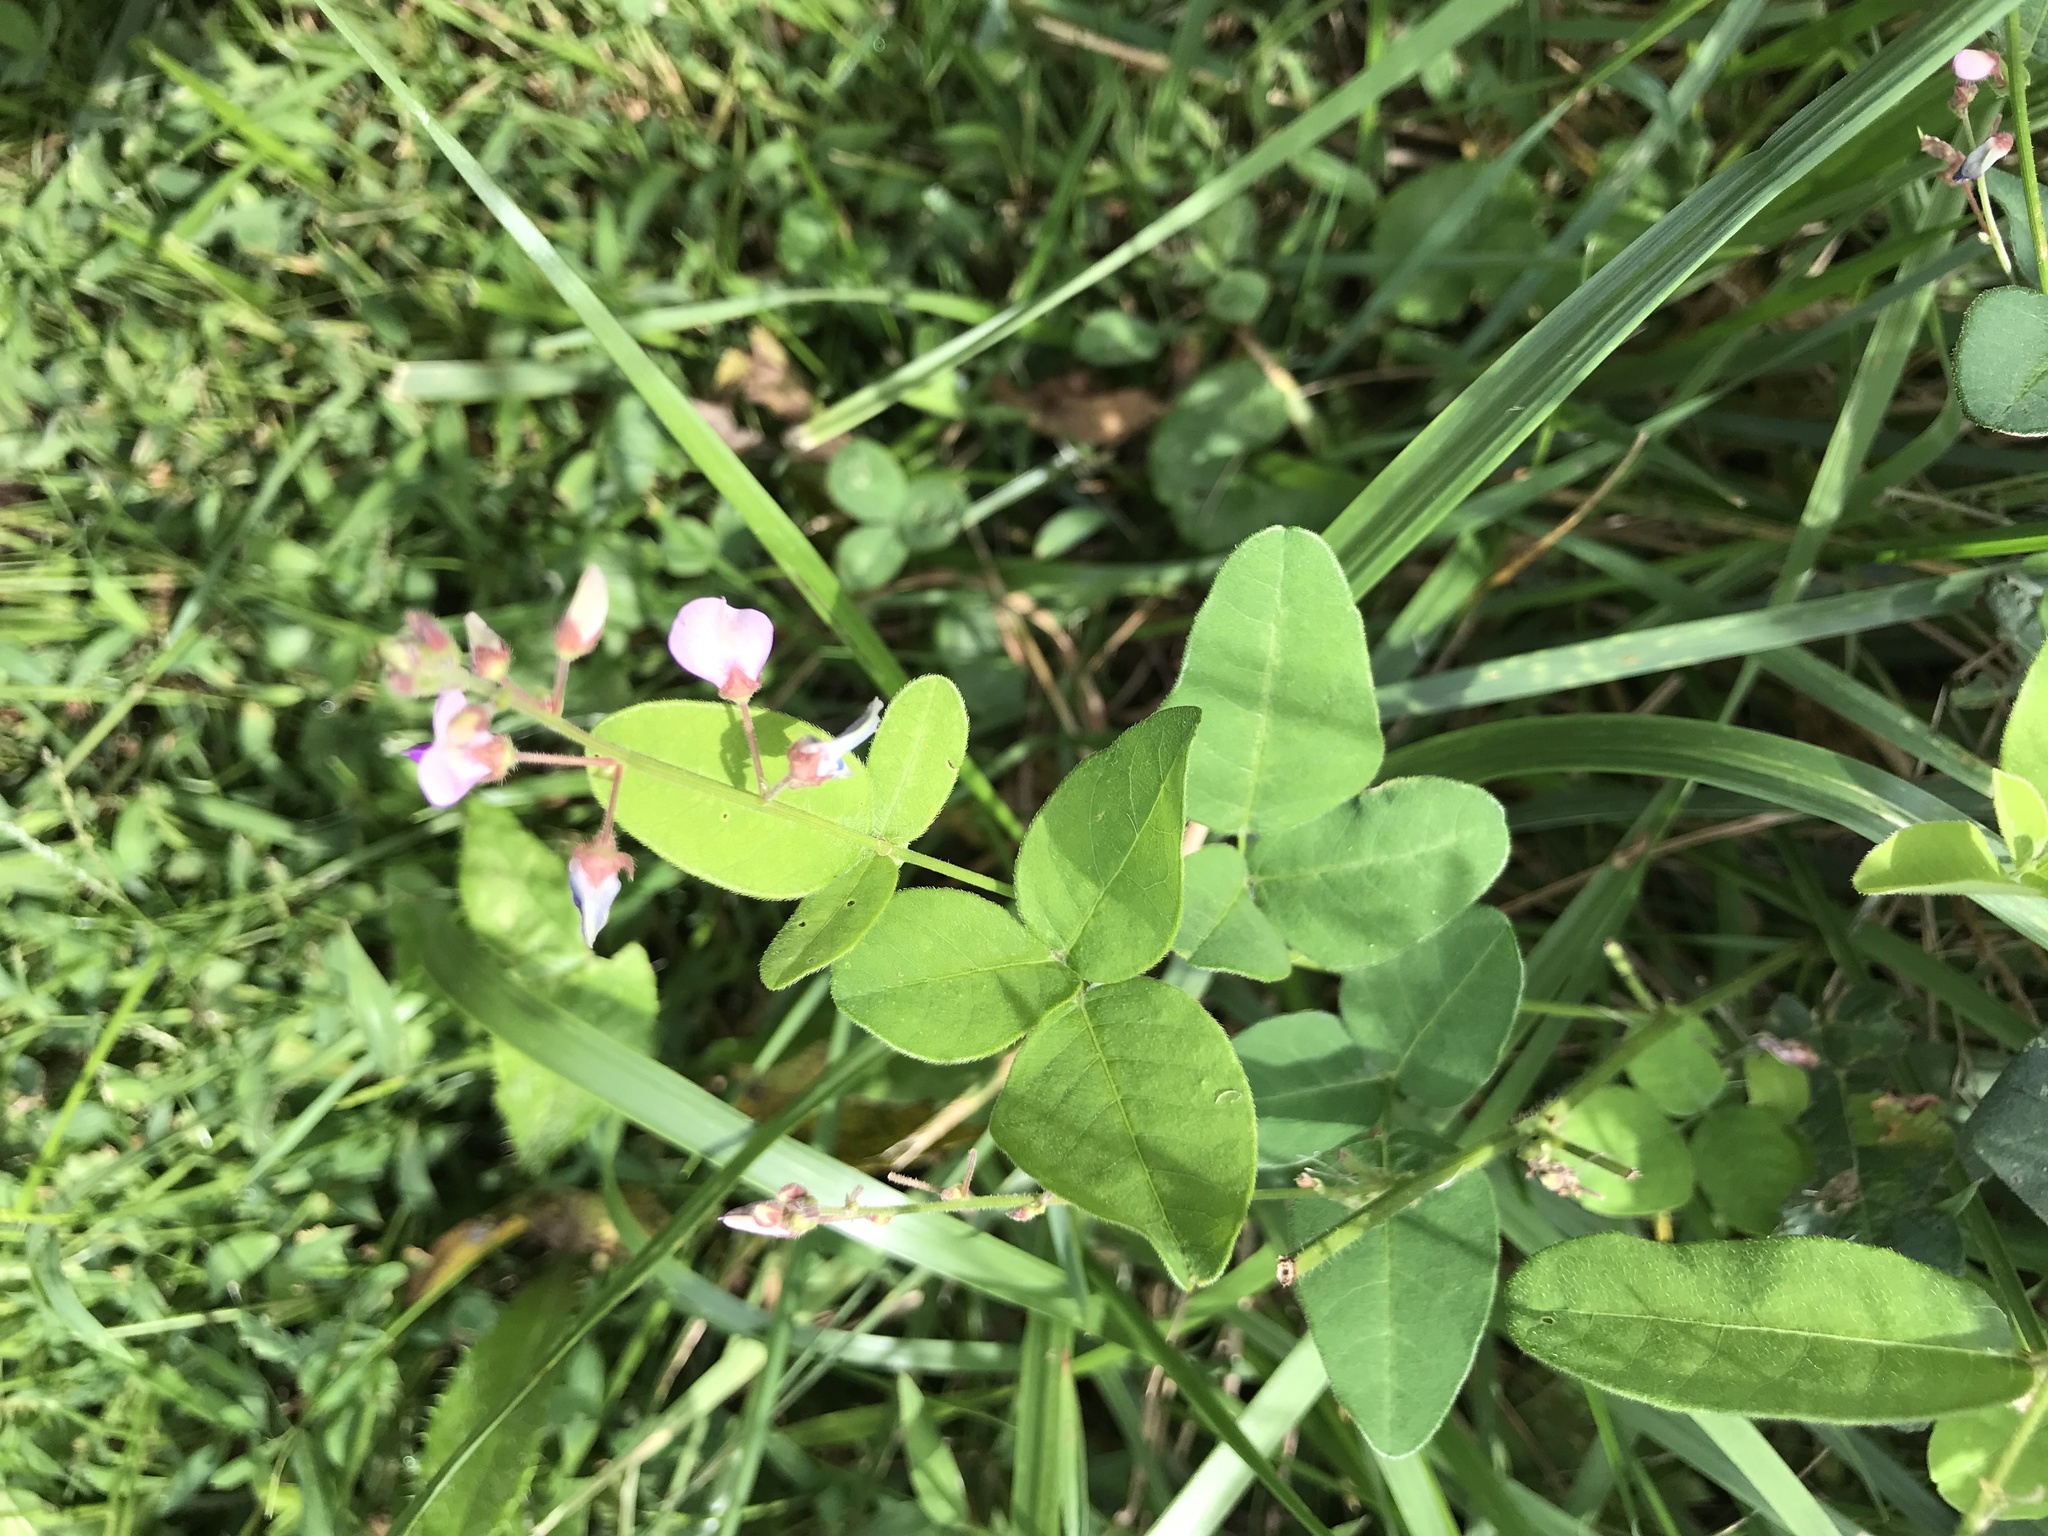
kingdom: Plantae
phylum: Tracheophyta
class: Magnoliopsida
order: Fabales
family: Fabaceae
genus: Desmodium
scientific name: Desmodium paniculatum
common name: Panicled tick-clover
